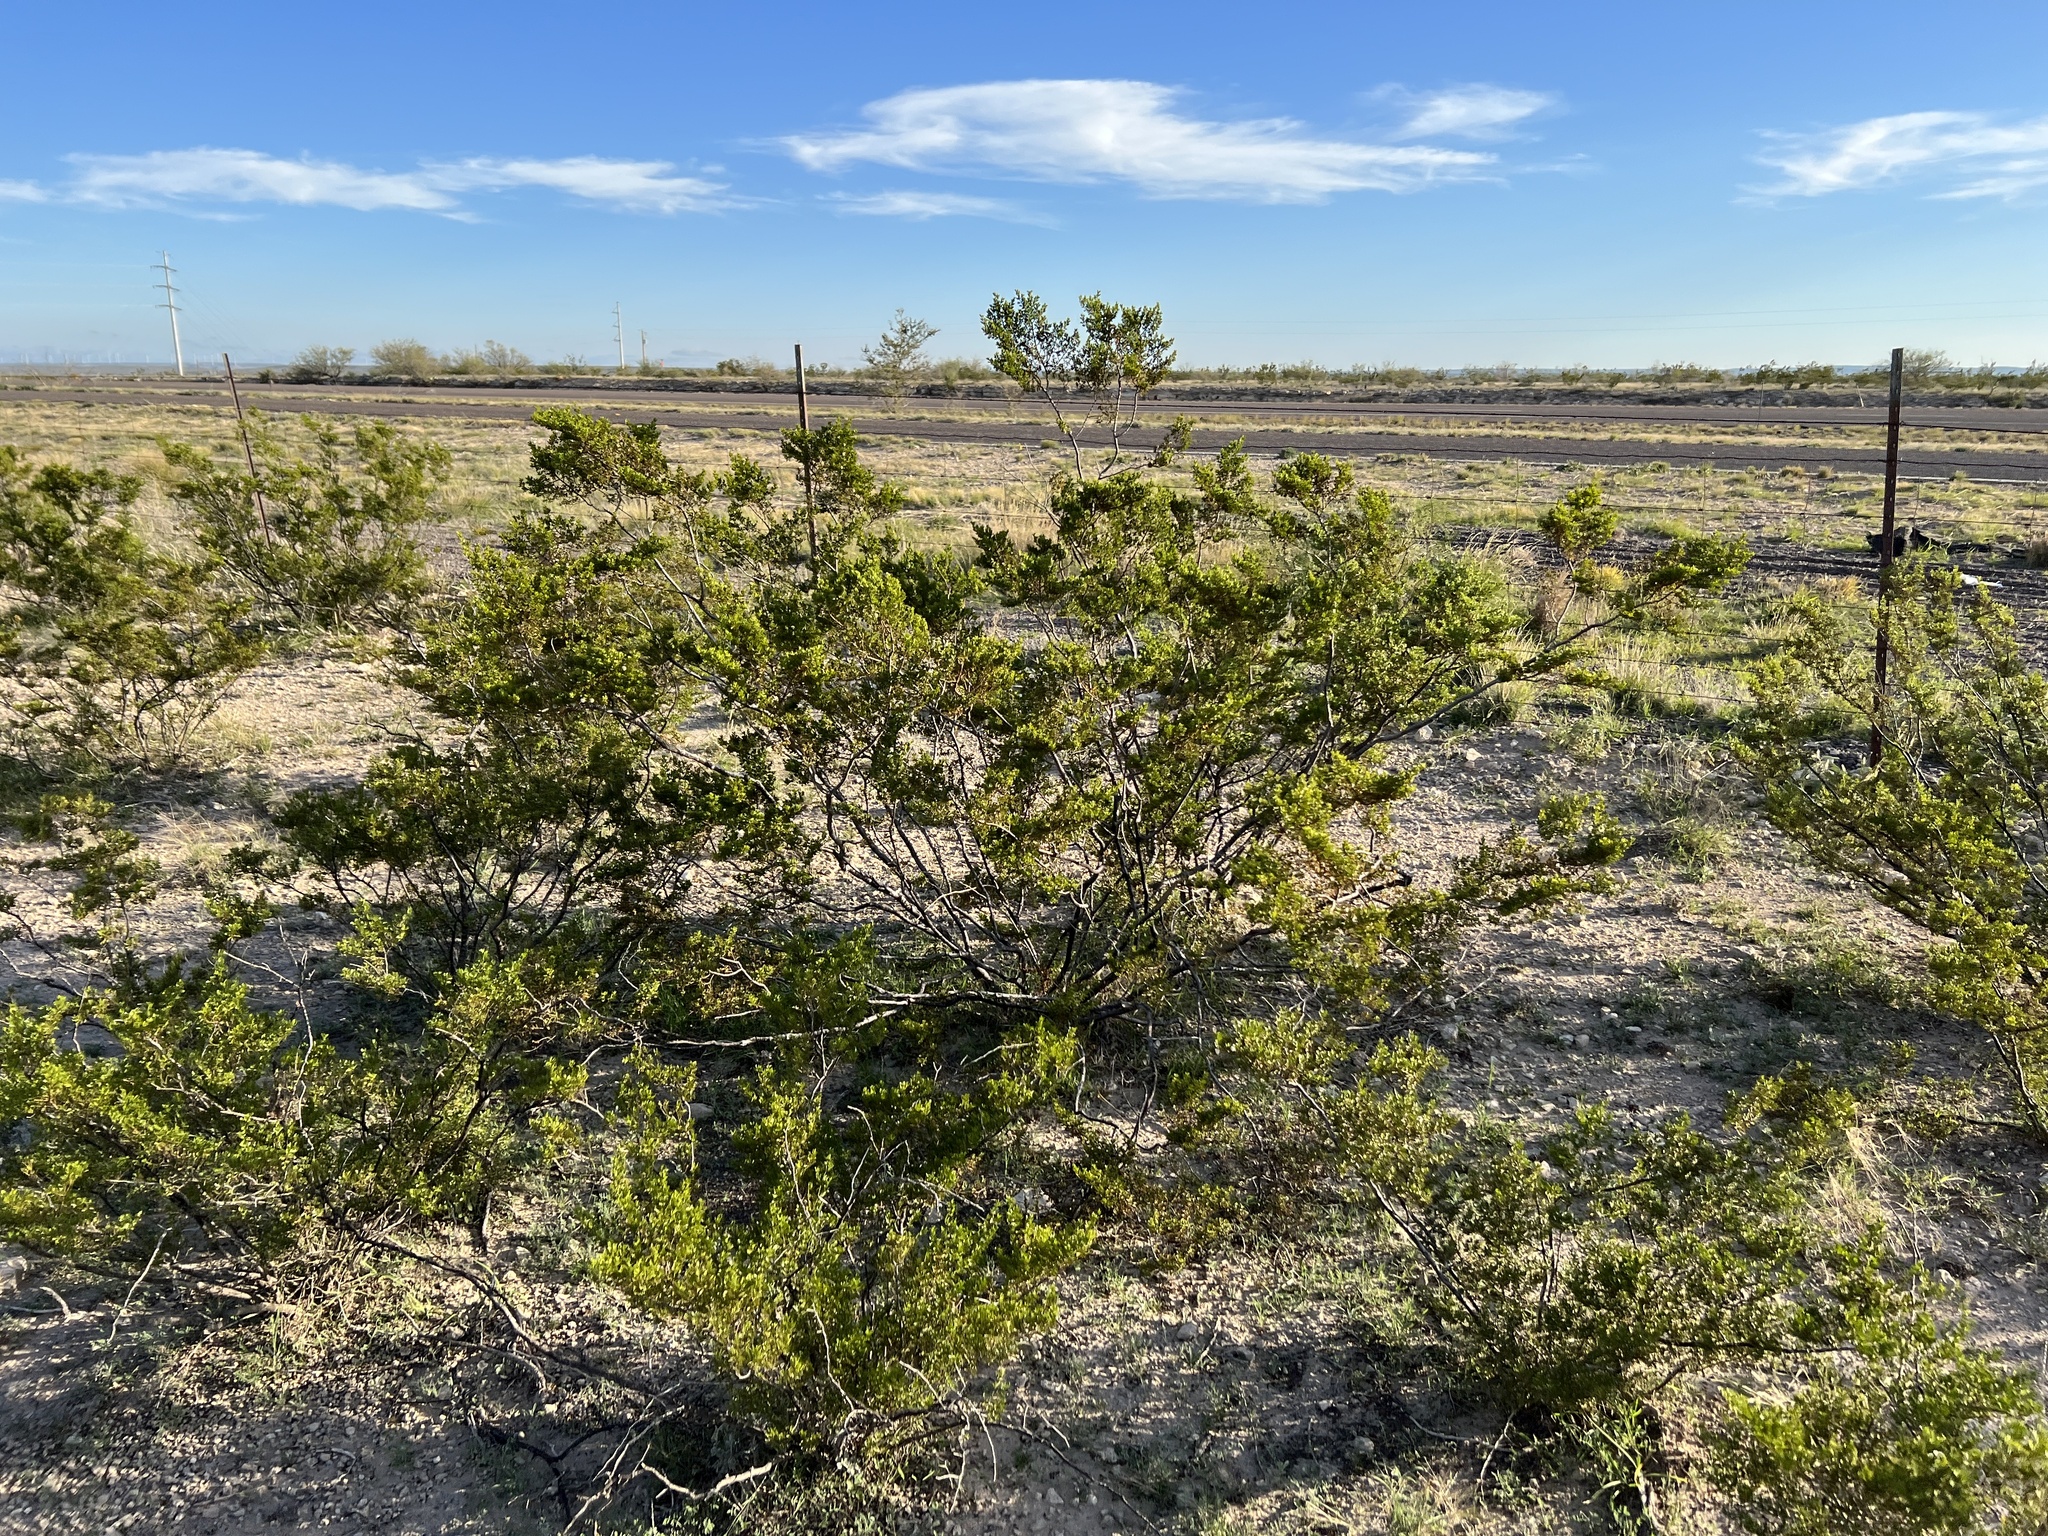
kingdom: Plantae
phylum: Tracheophyta
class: Magnoliopsida
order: Zygophyllales
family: Zygophyllaceae
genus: Larrea
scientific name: Larrea tridentata
